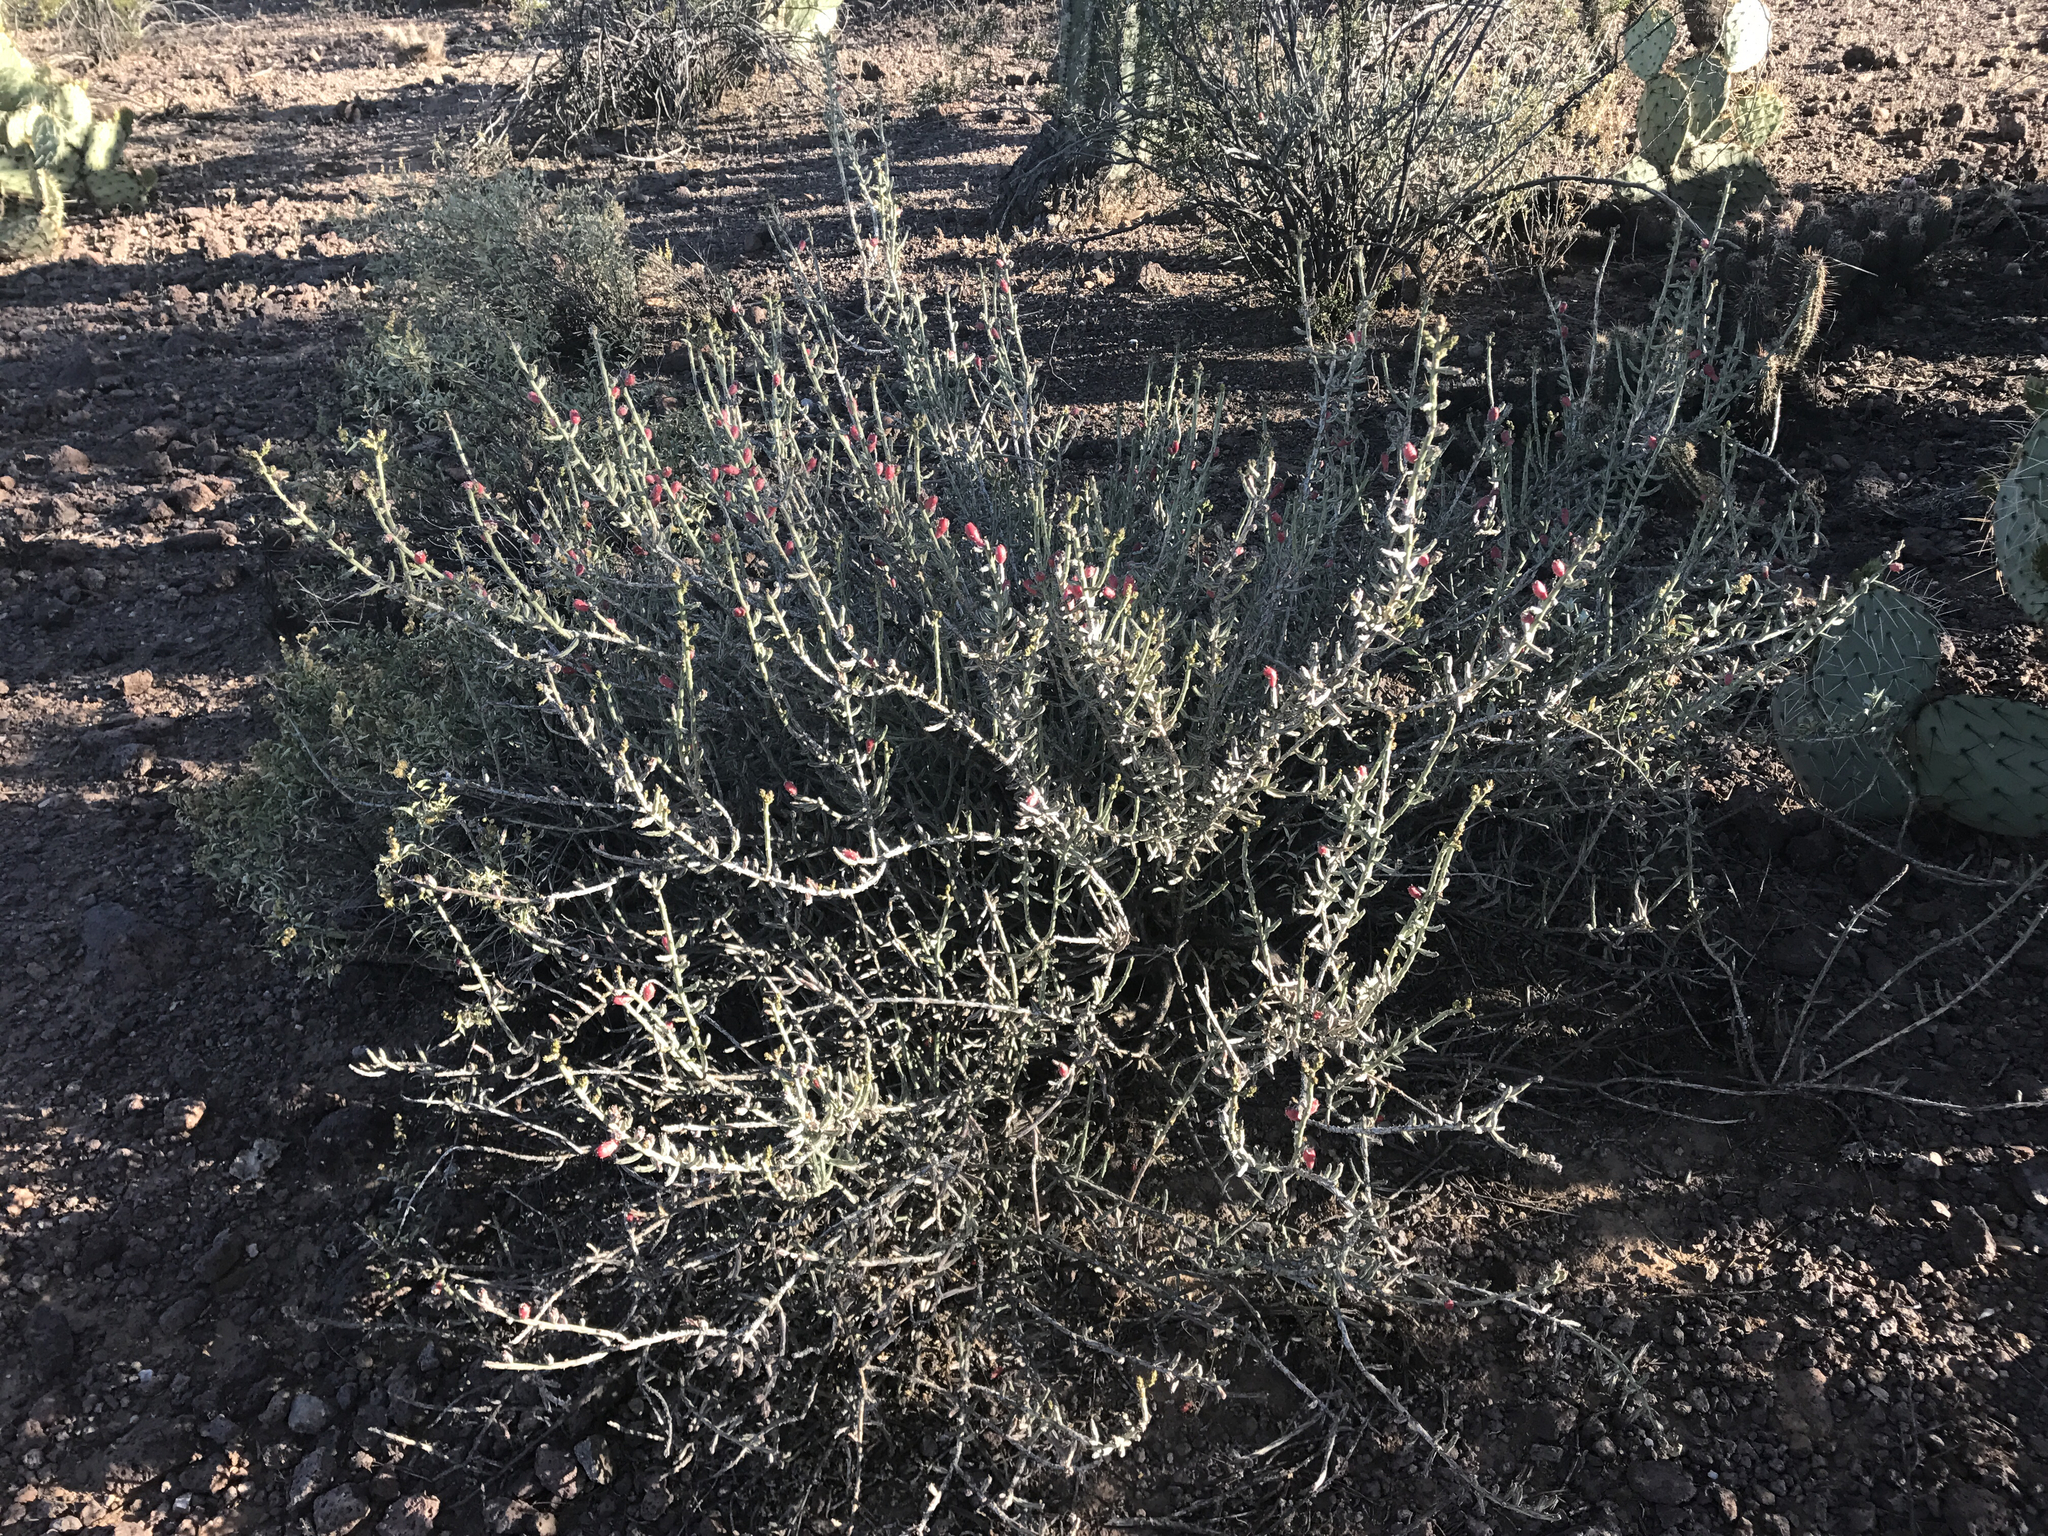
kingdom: Plantae
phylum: Tracheophyta
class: Magnoliopsida
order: Caryophyllales
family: Cactaceae
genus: Cylindropuntia
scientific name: Cylindropuntia leptocaulis
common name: Christmas cactus
